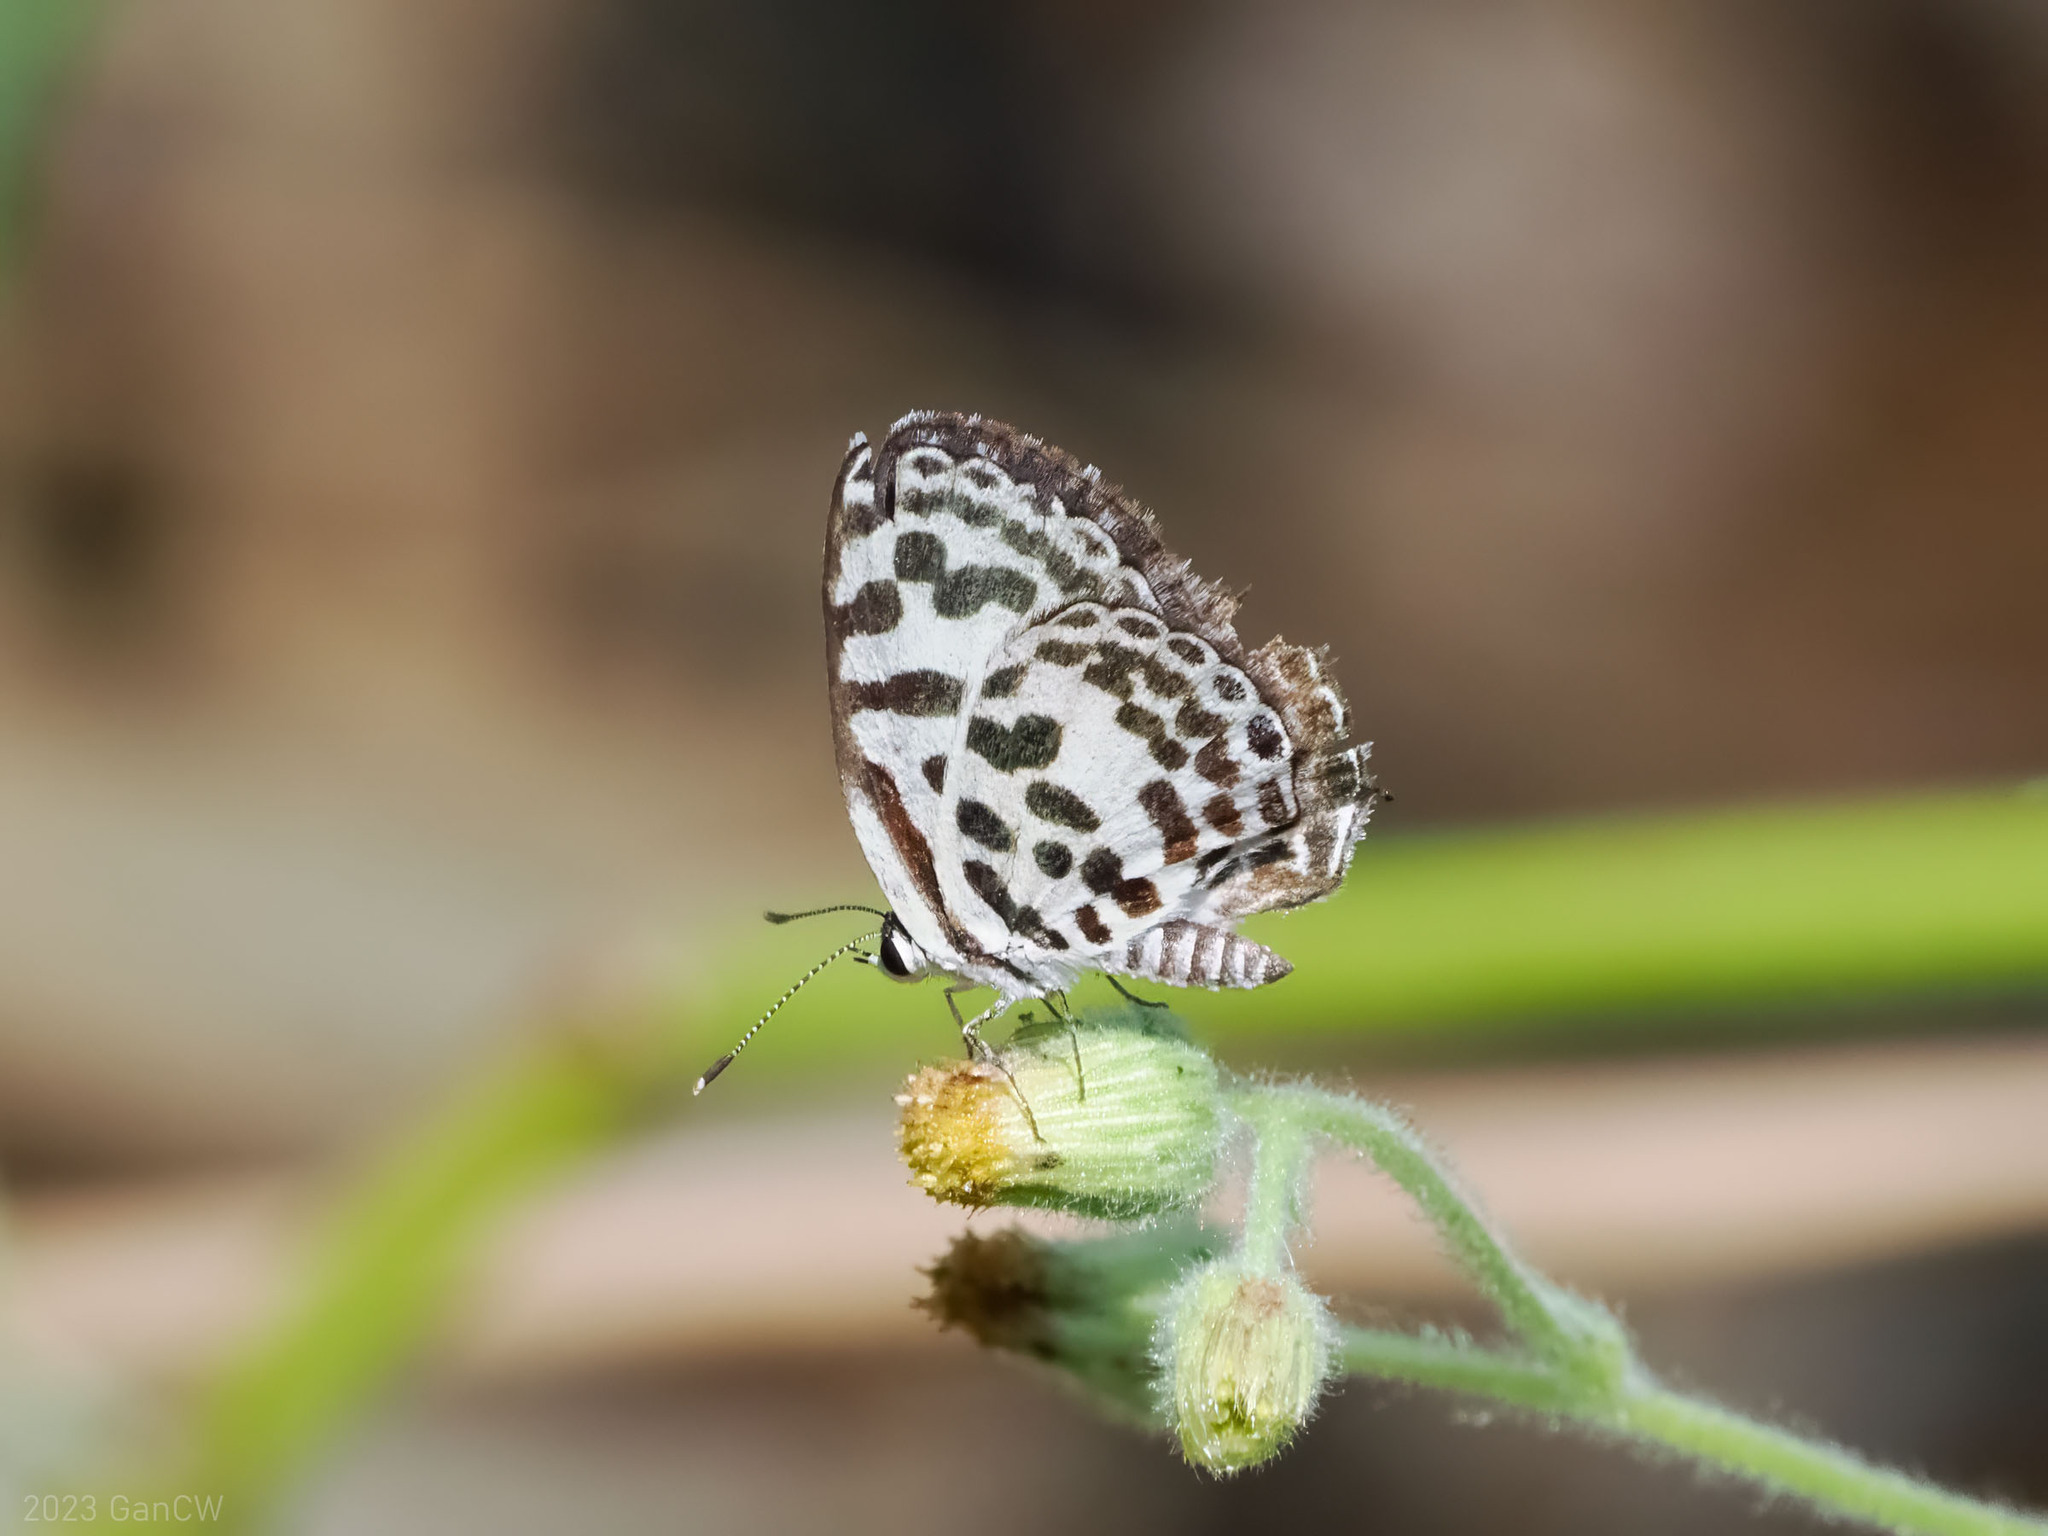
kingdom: Animalia
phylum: Arthropoda
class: Insecta
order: Lepidoptera
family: Lycaenidae
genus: Castalius
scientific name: Castalius rosimon
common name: Common pierrot
